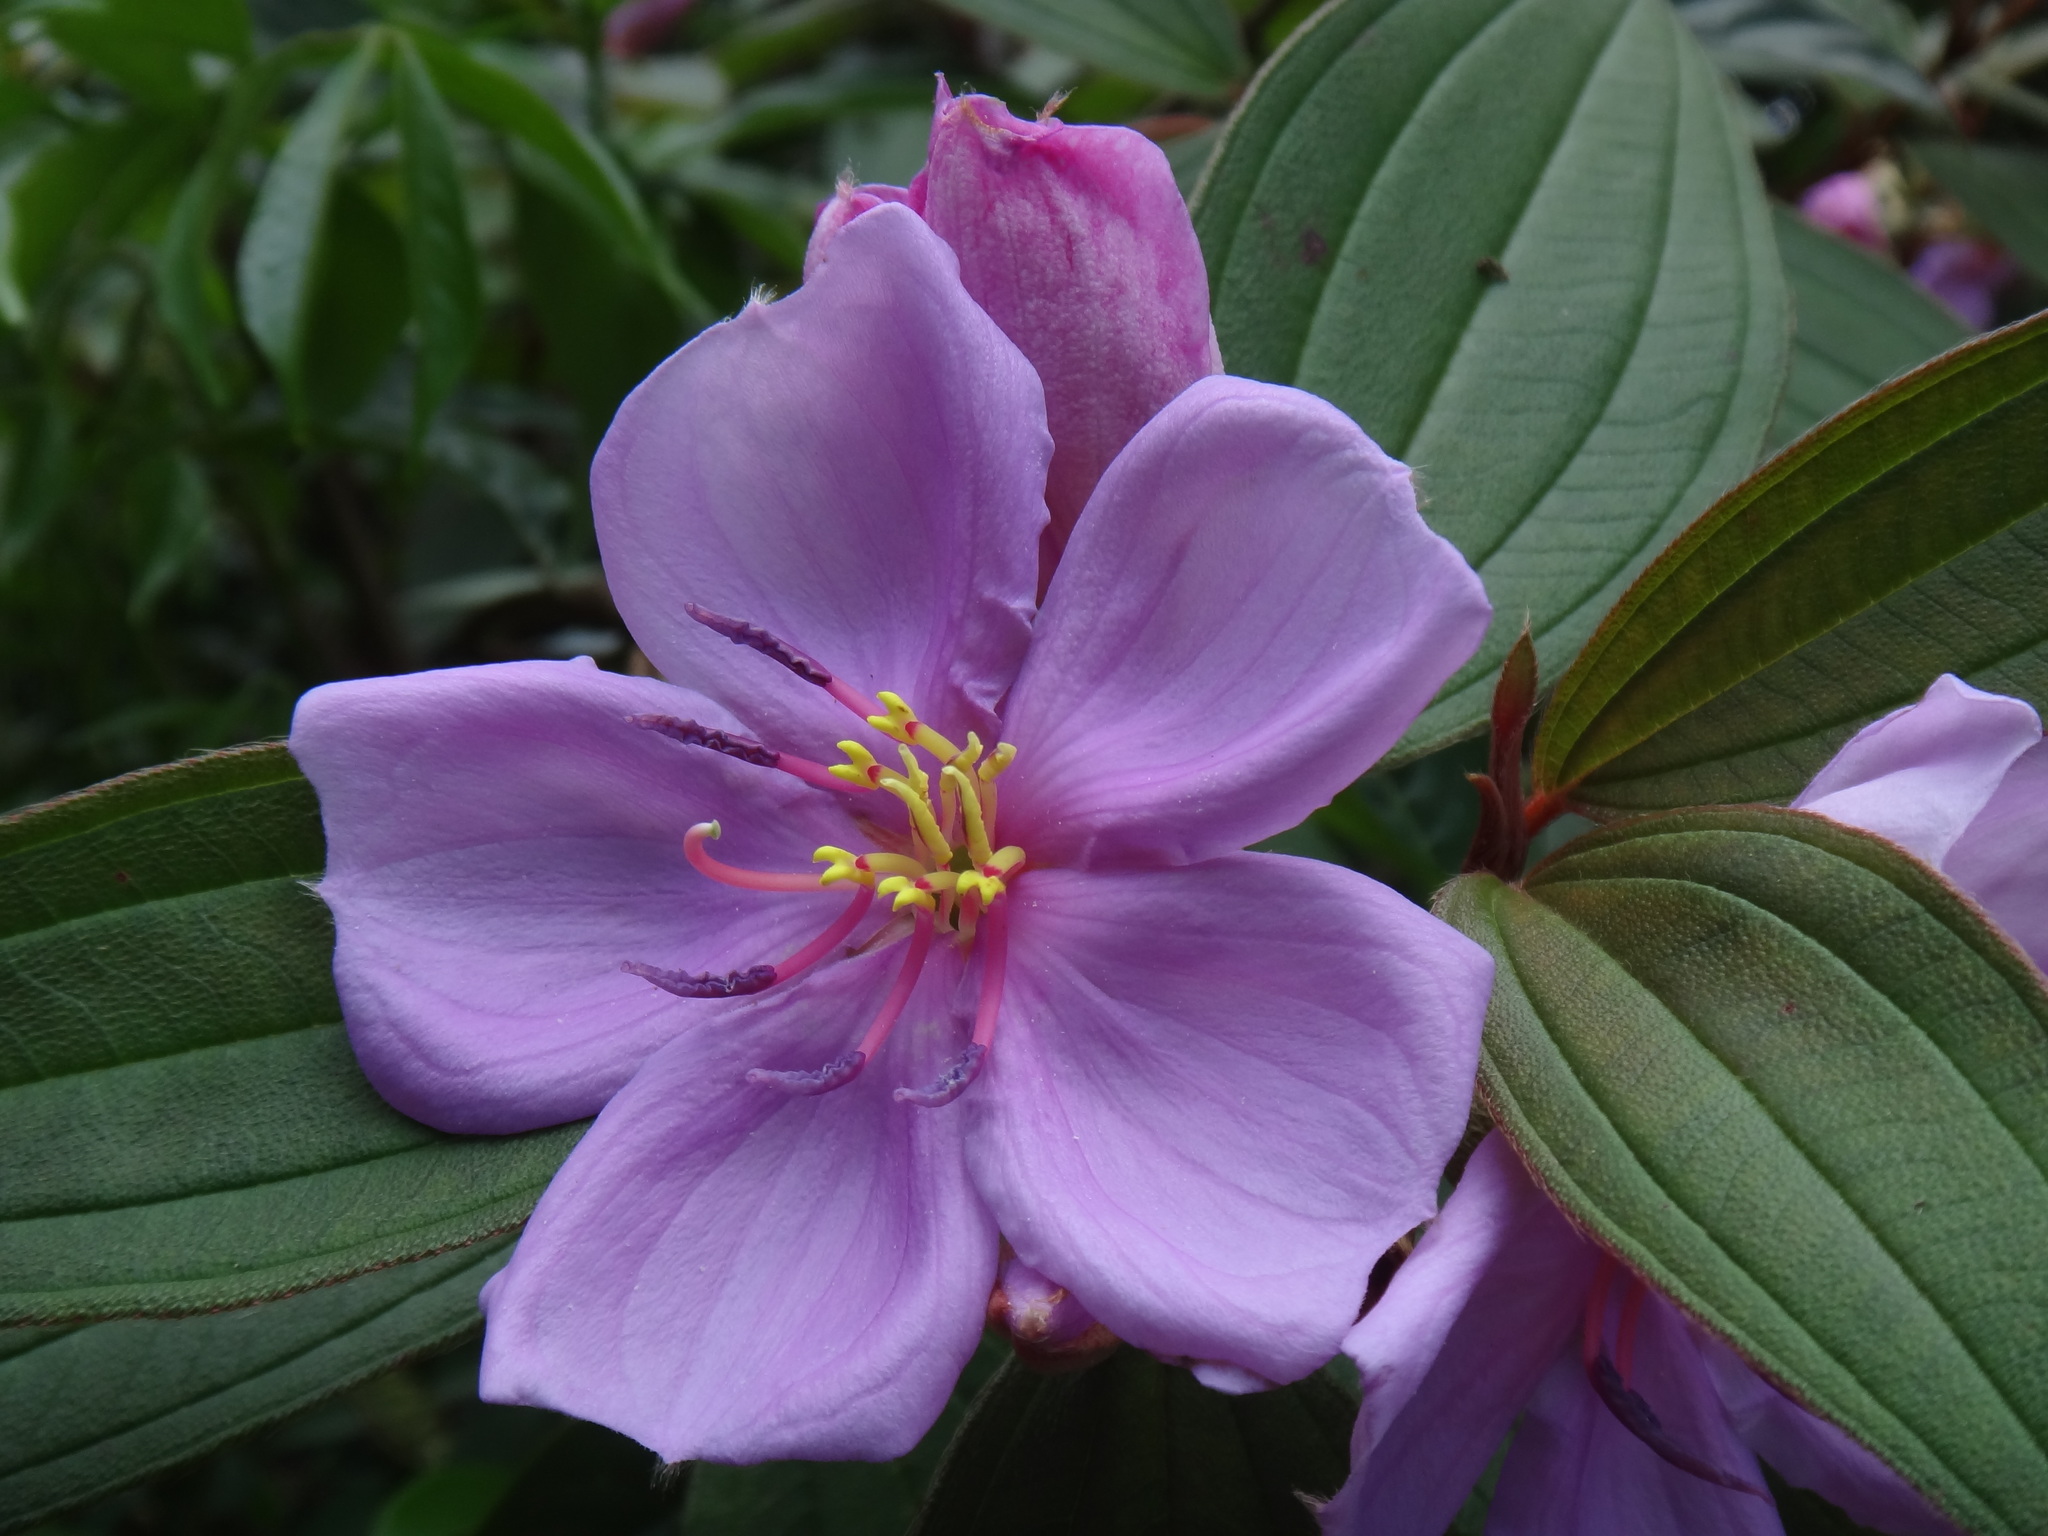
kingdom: Plantae
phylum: Tracheophyta
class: Magnoliopsida
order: Myrtales
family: Melastomataceae
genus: Melastoma
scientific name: Melastoma malabathricum
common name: Indian-rhododendron
